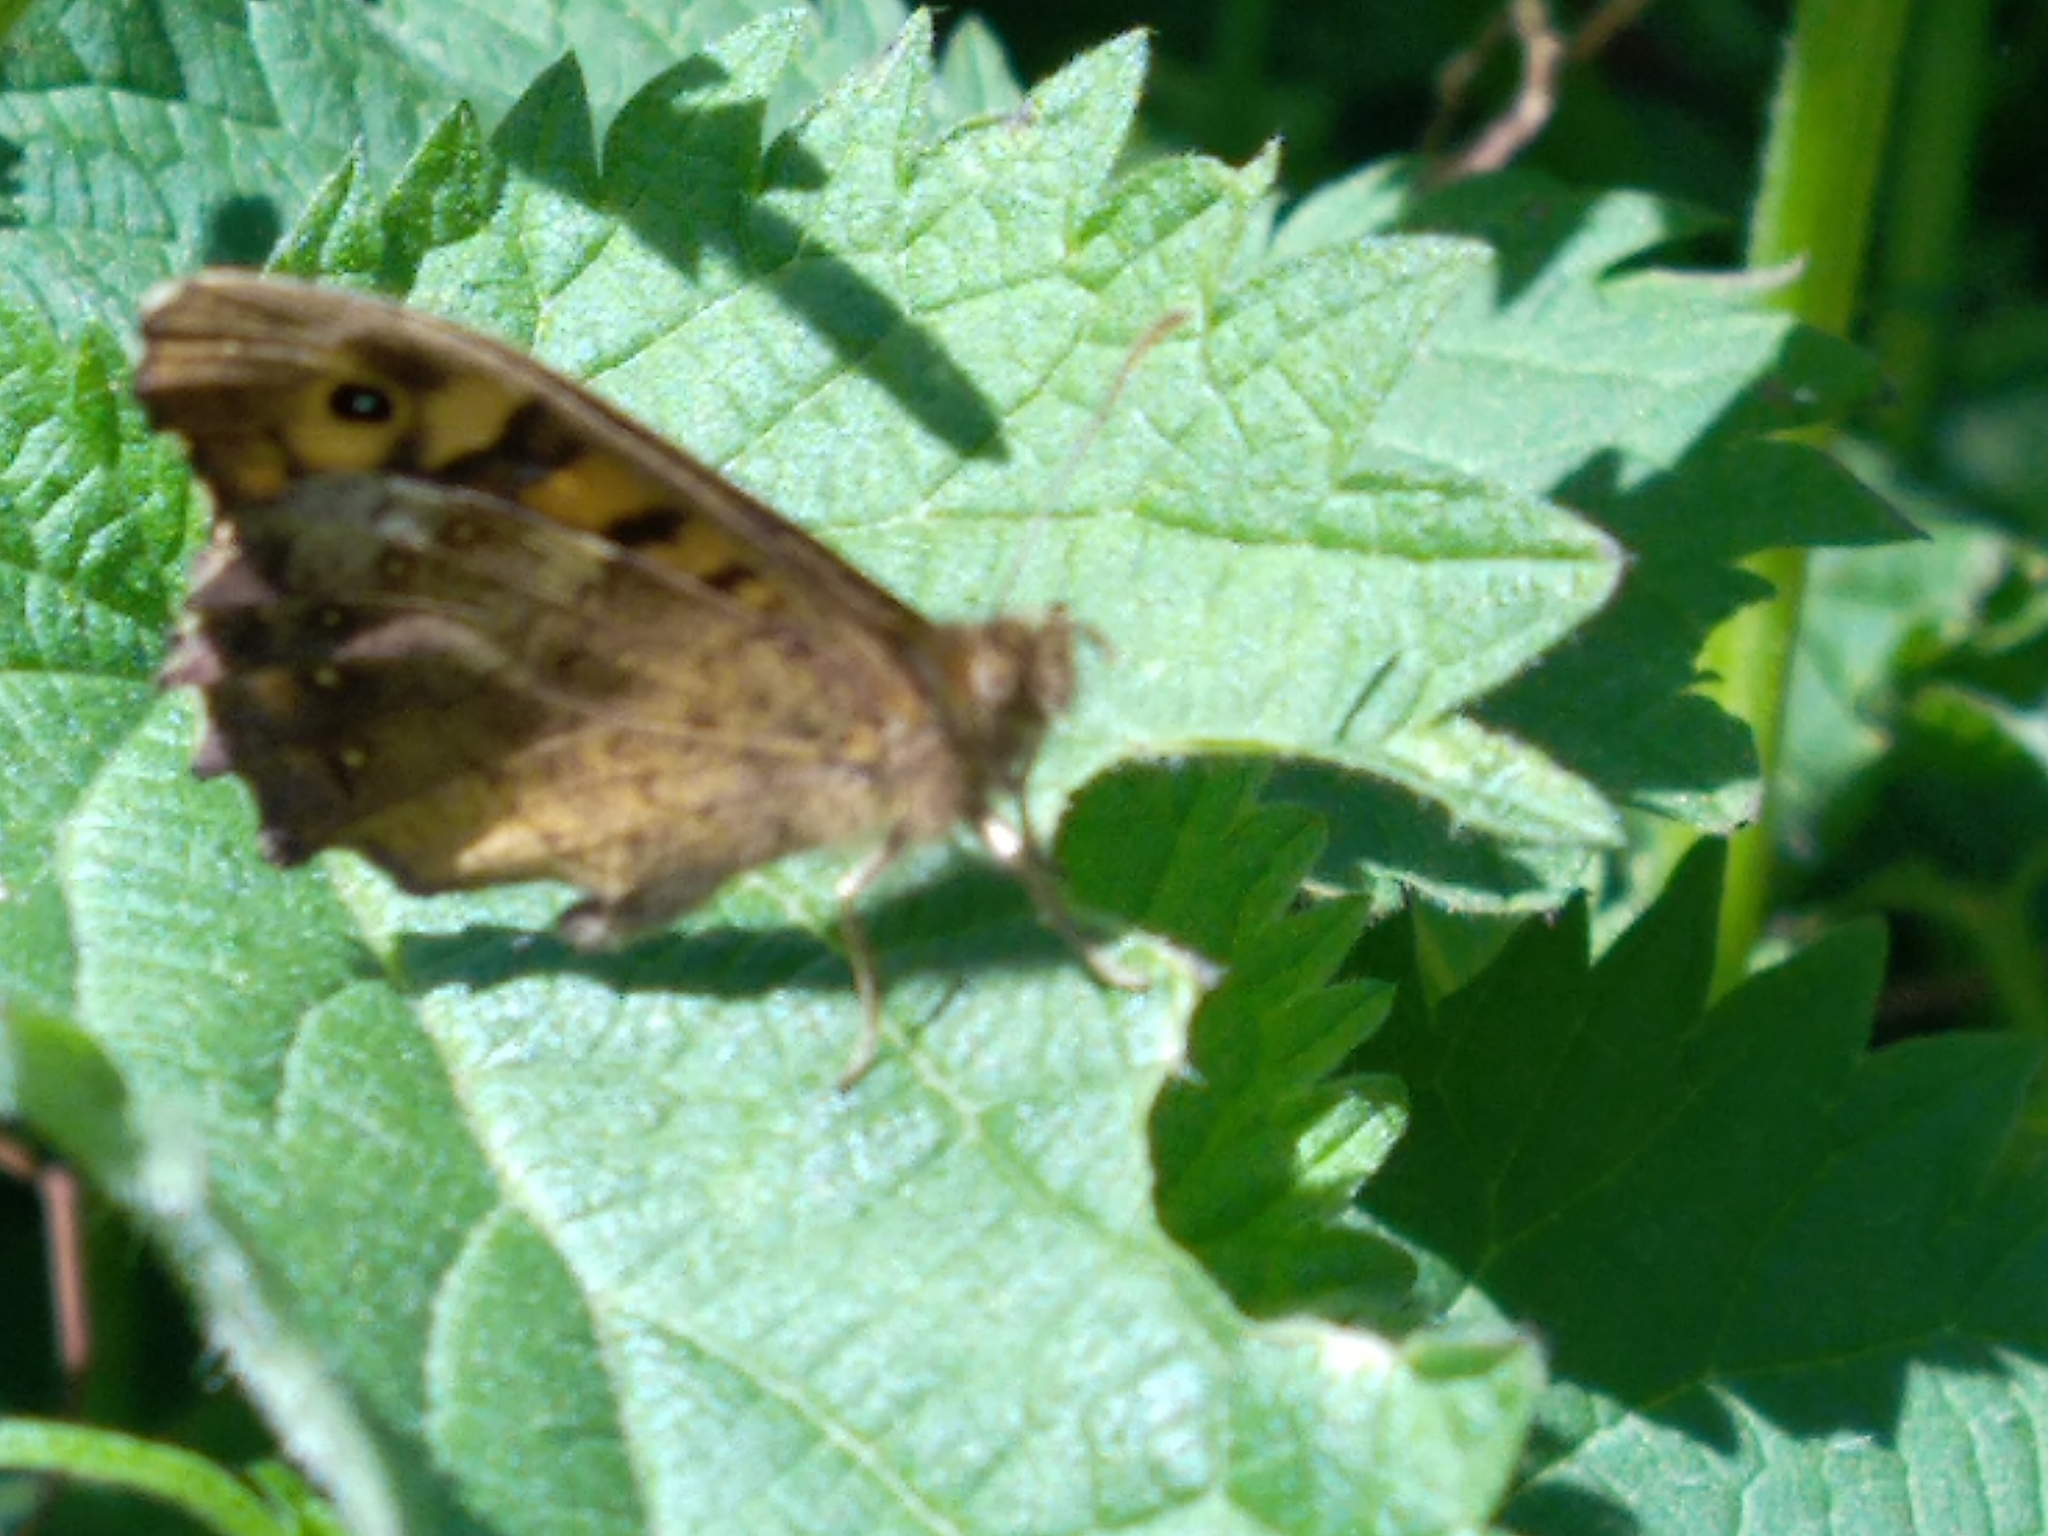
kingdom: Animalia
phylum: Arthropoda
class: Insecta
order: Lepidoptera
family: Nymphalidae
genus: Pararge
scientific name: Pararge aegeria
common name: Speckled wood
